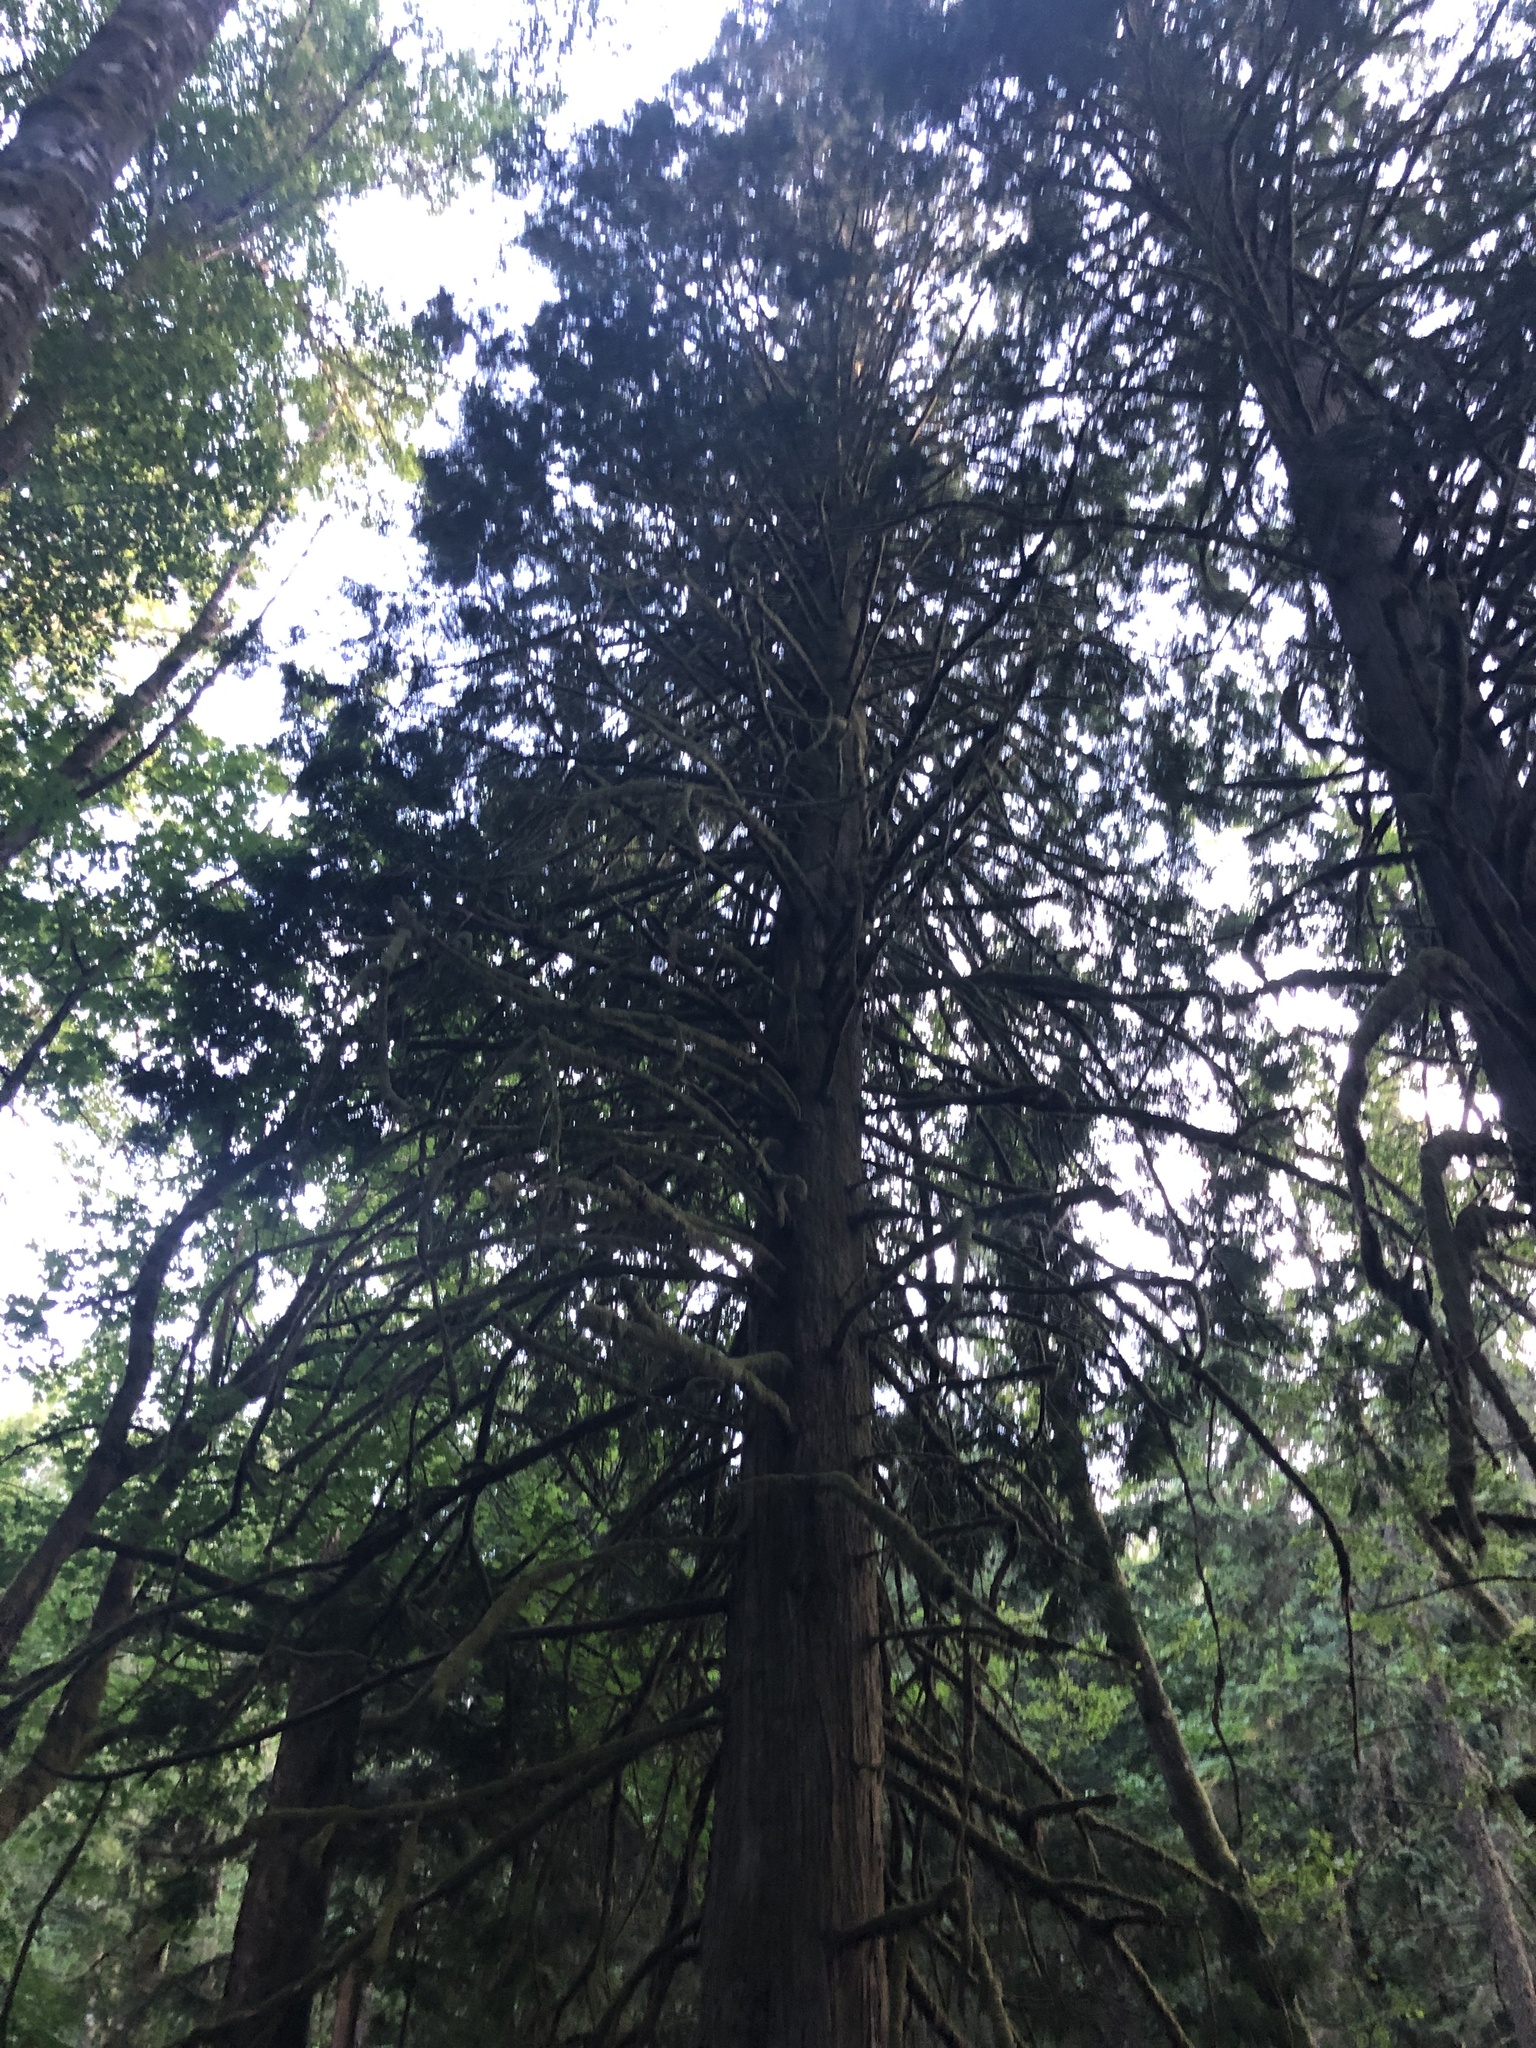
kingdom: Plantae
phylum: Tracheophyta
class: Pinopsida
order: Pinales
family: Cupressaceae
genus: Thuja
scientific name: Thuja plicata
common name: Western red-cedar
